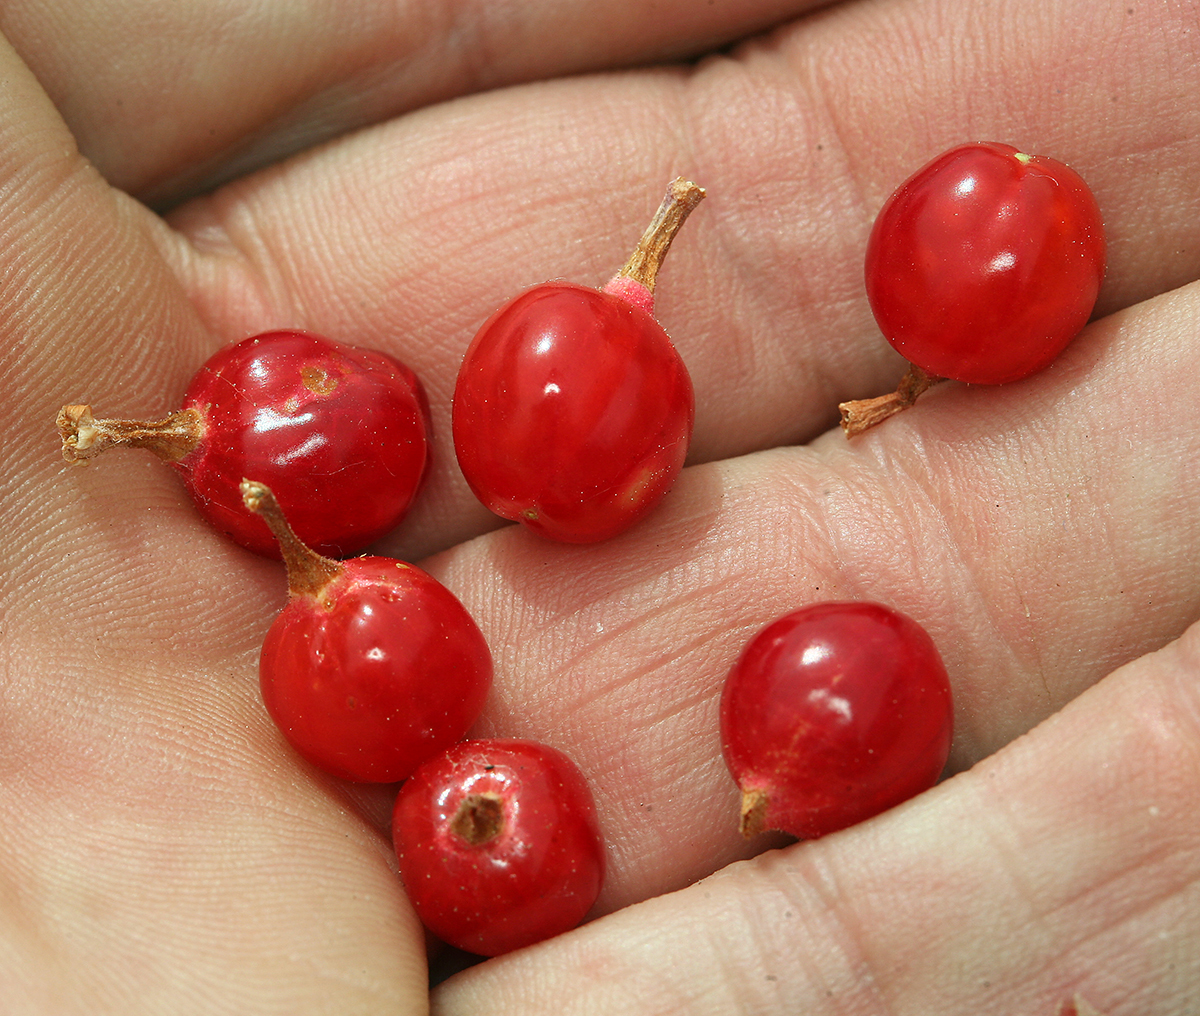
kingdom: Plantae
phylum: Tracheophyta
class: Magnoliopsida
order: Saxifragales
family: Grossulariaceae
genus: Ribes
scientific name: Ribes cereum
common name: Wax currant
